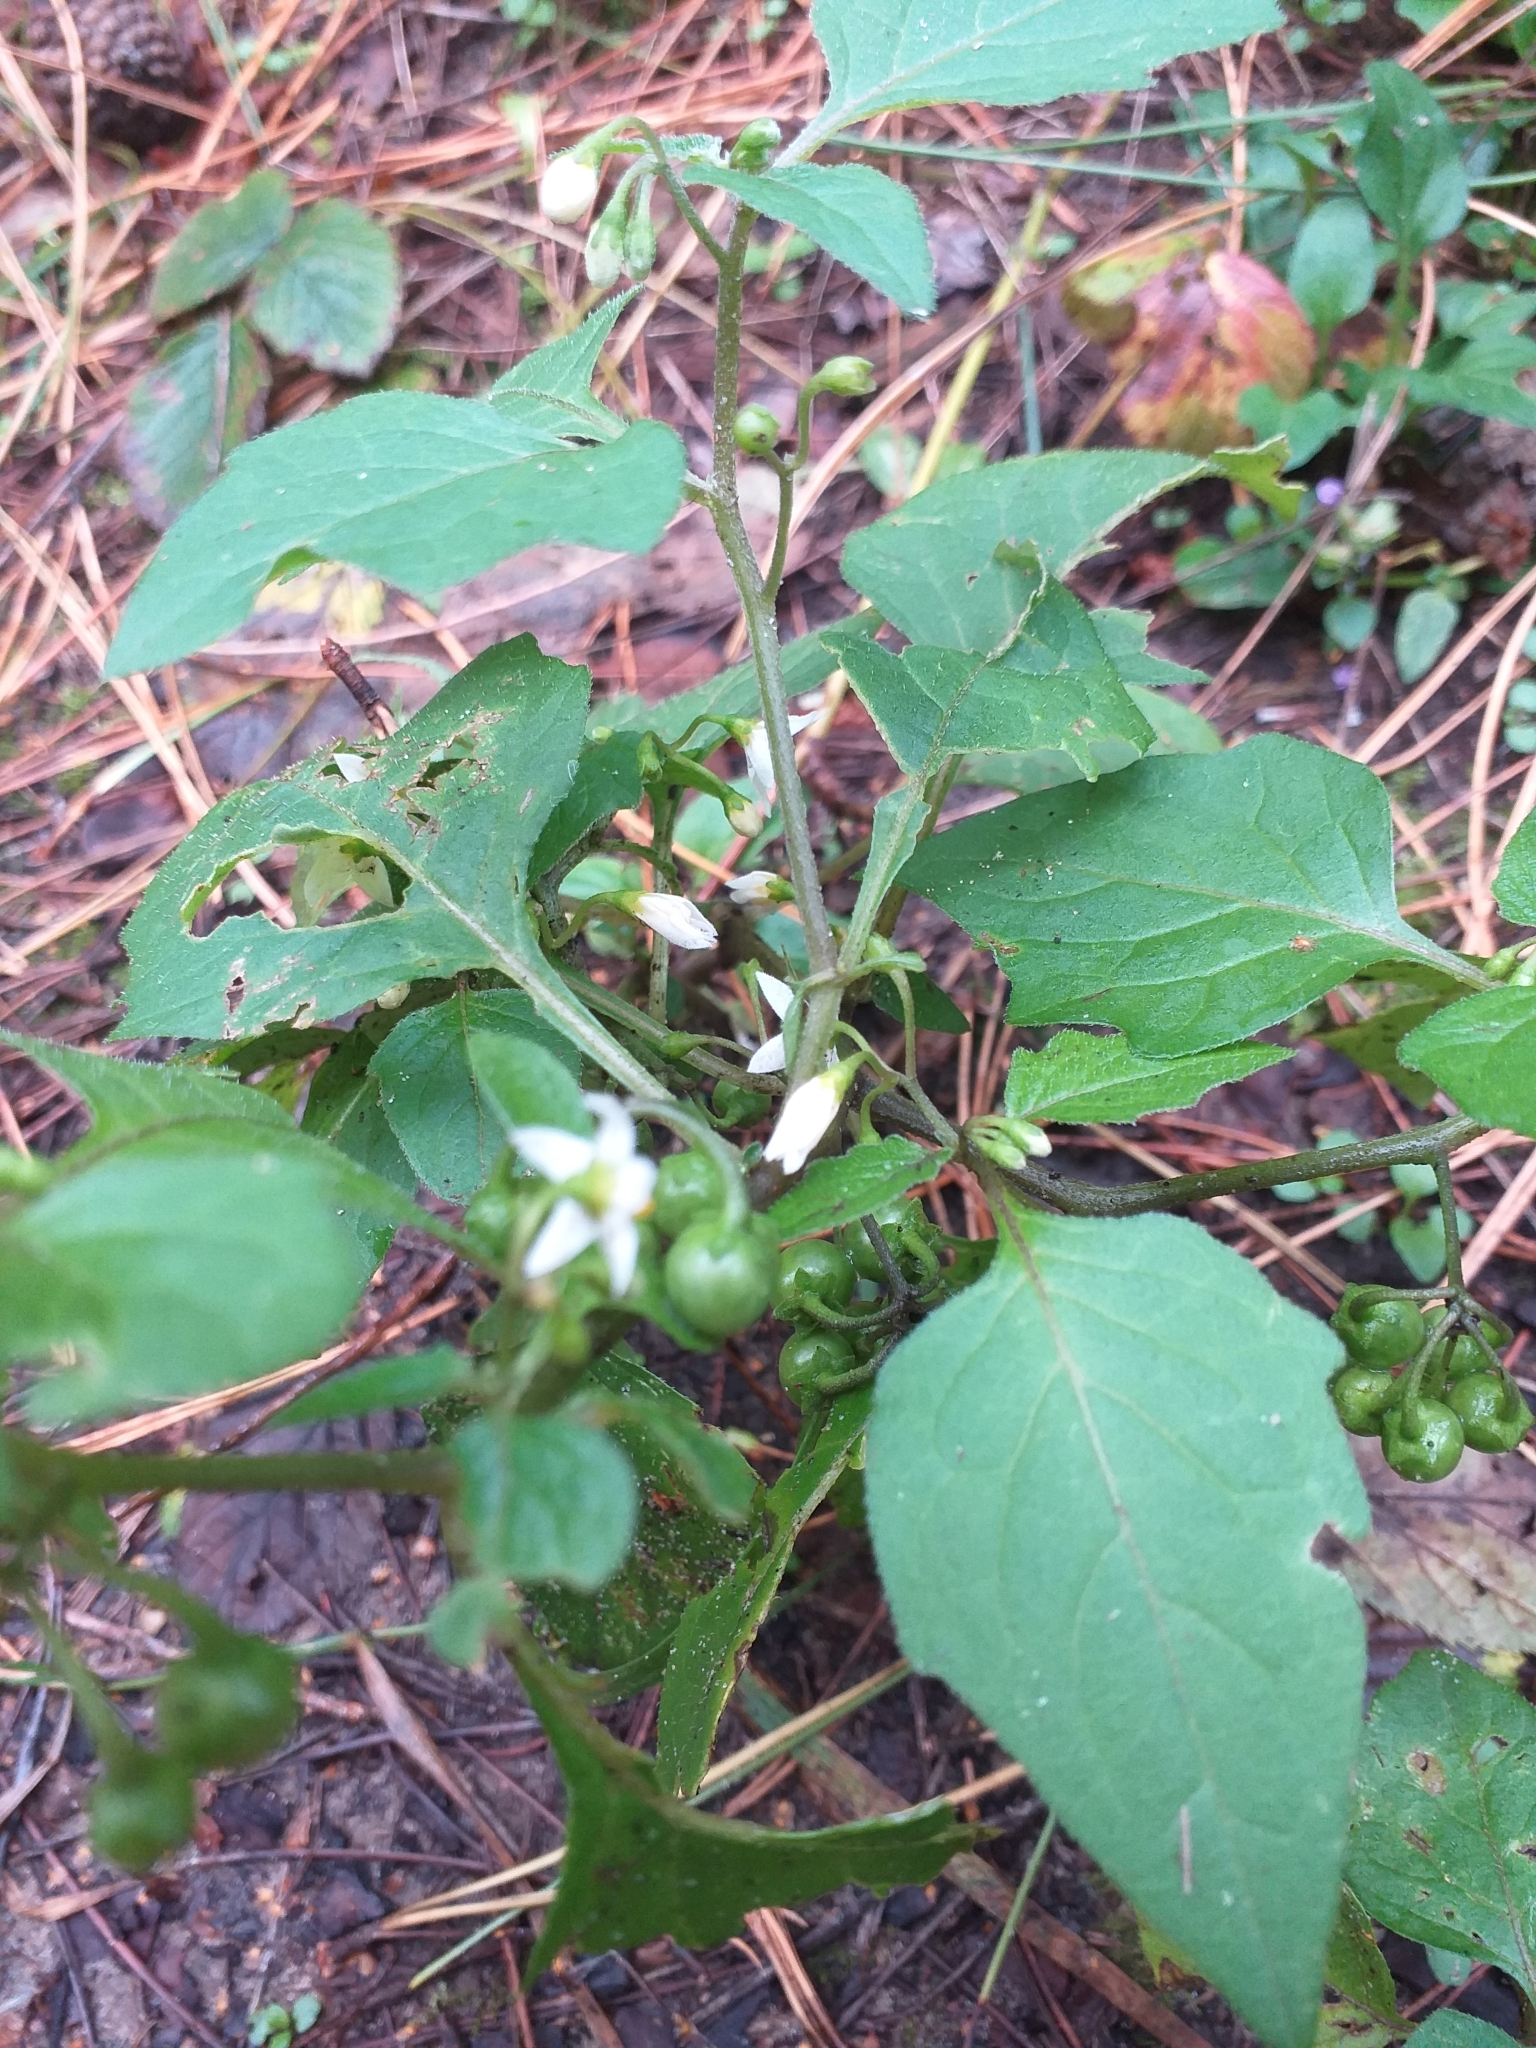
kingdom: Plantae
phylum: Tracheophyta
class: Magnoliopsida
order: Solanales
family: Solanaceae
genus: Solanum
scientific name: Solanum nigrum
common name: Black nightshade
